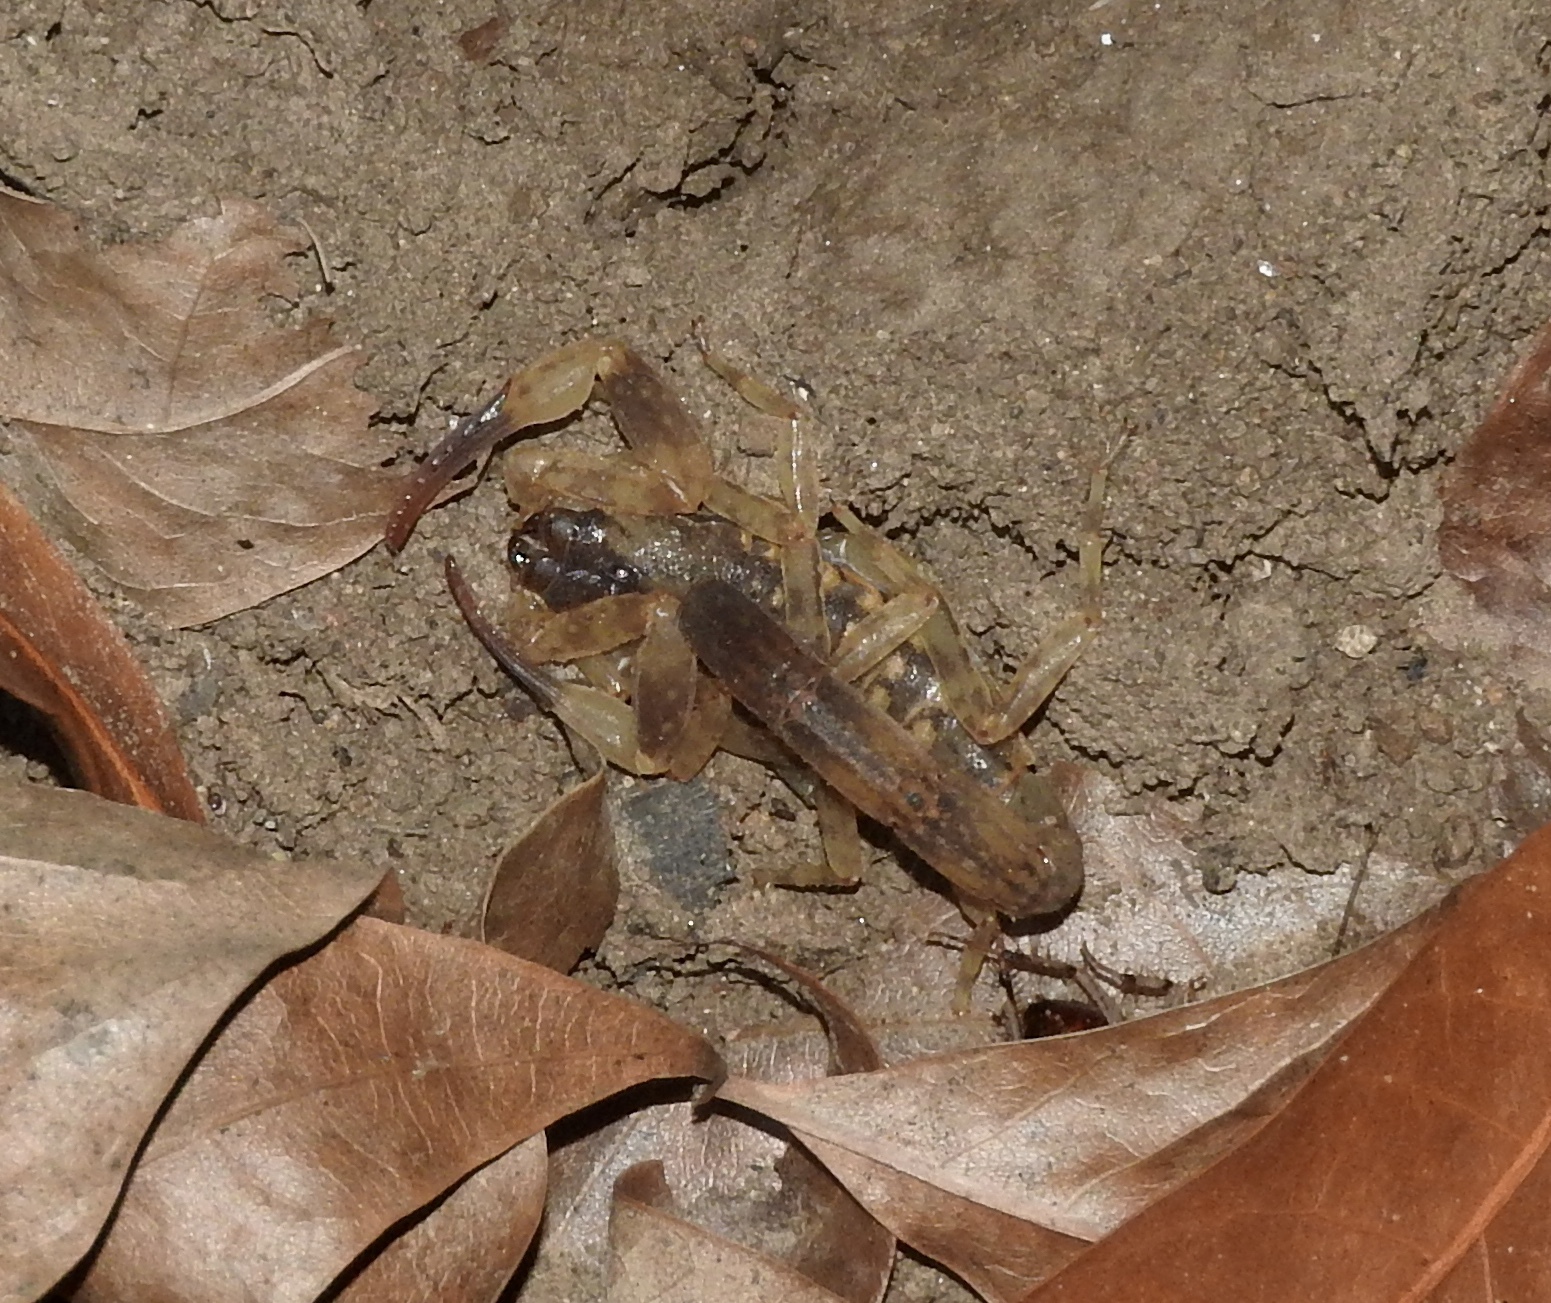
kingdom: Animalia
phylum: Arthropoda
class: Arachnida
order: Scorpiones
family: Buthidae
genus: Lychas
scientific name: Lychas mucronatus
